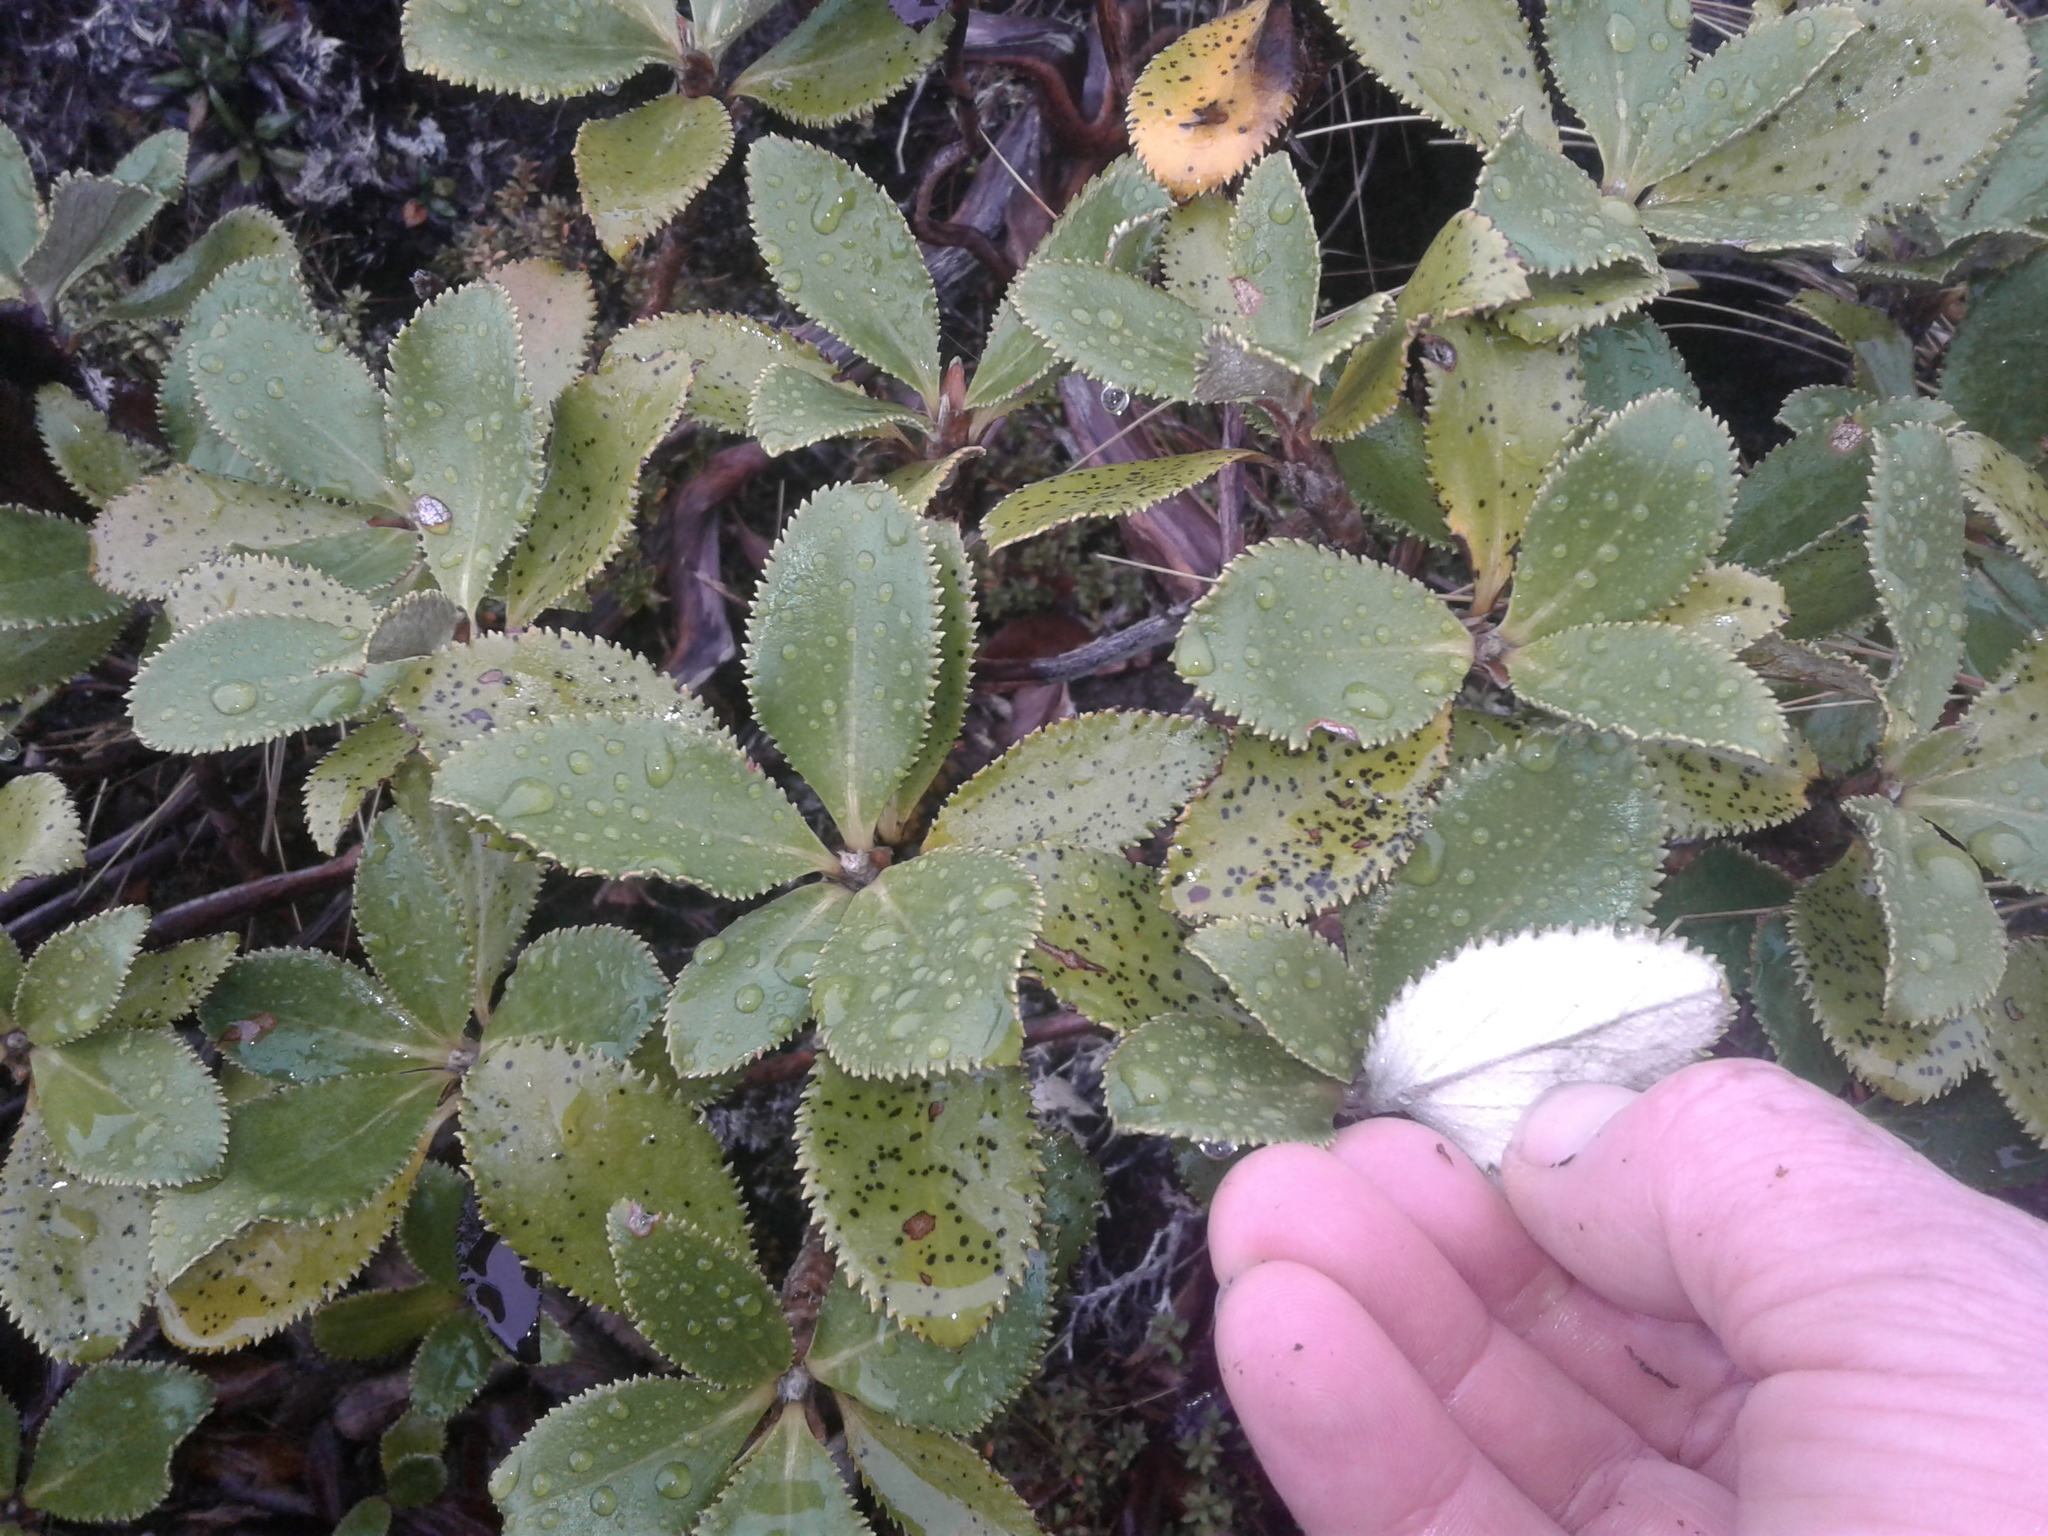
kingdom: Plantae
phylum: Tracheophyta
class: Magnoliopsida
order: Asterales
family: Asteraceae
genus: Macrolearia
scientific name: Macrolearia colensoi
